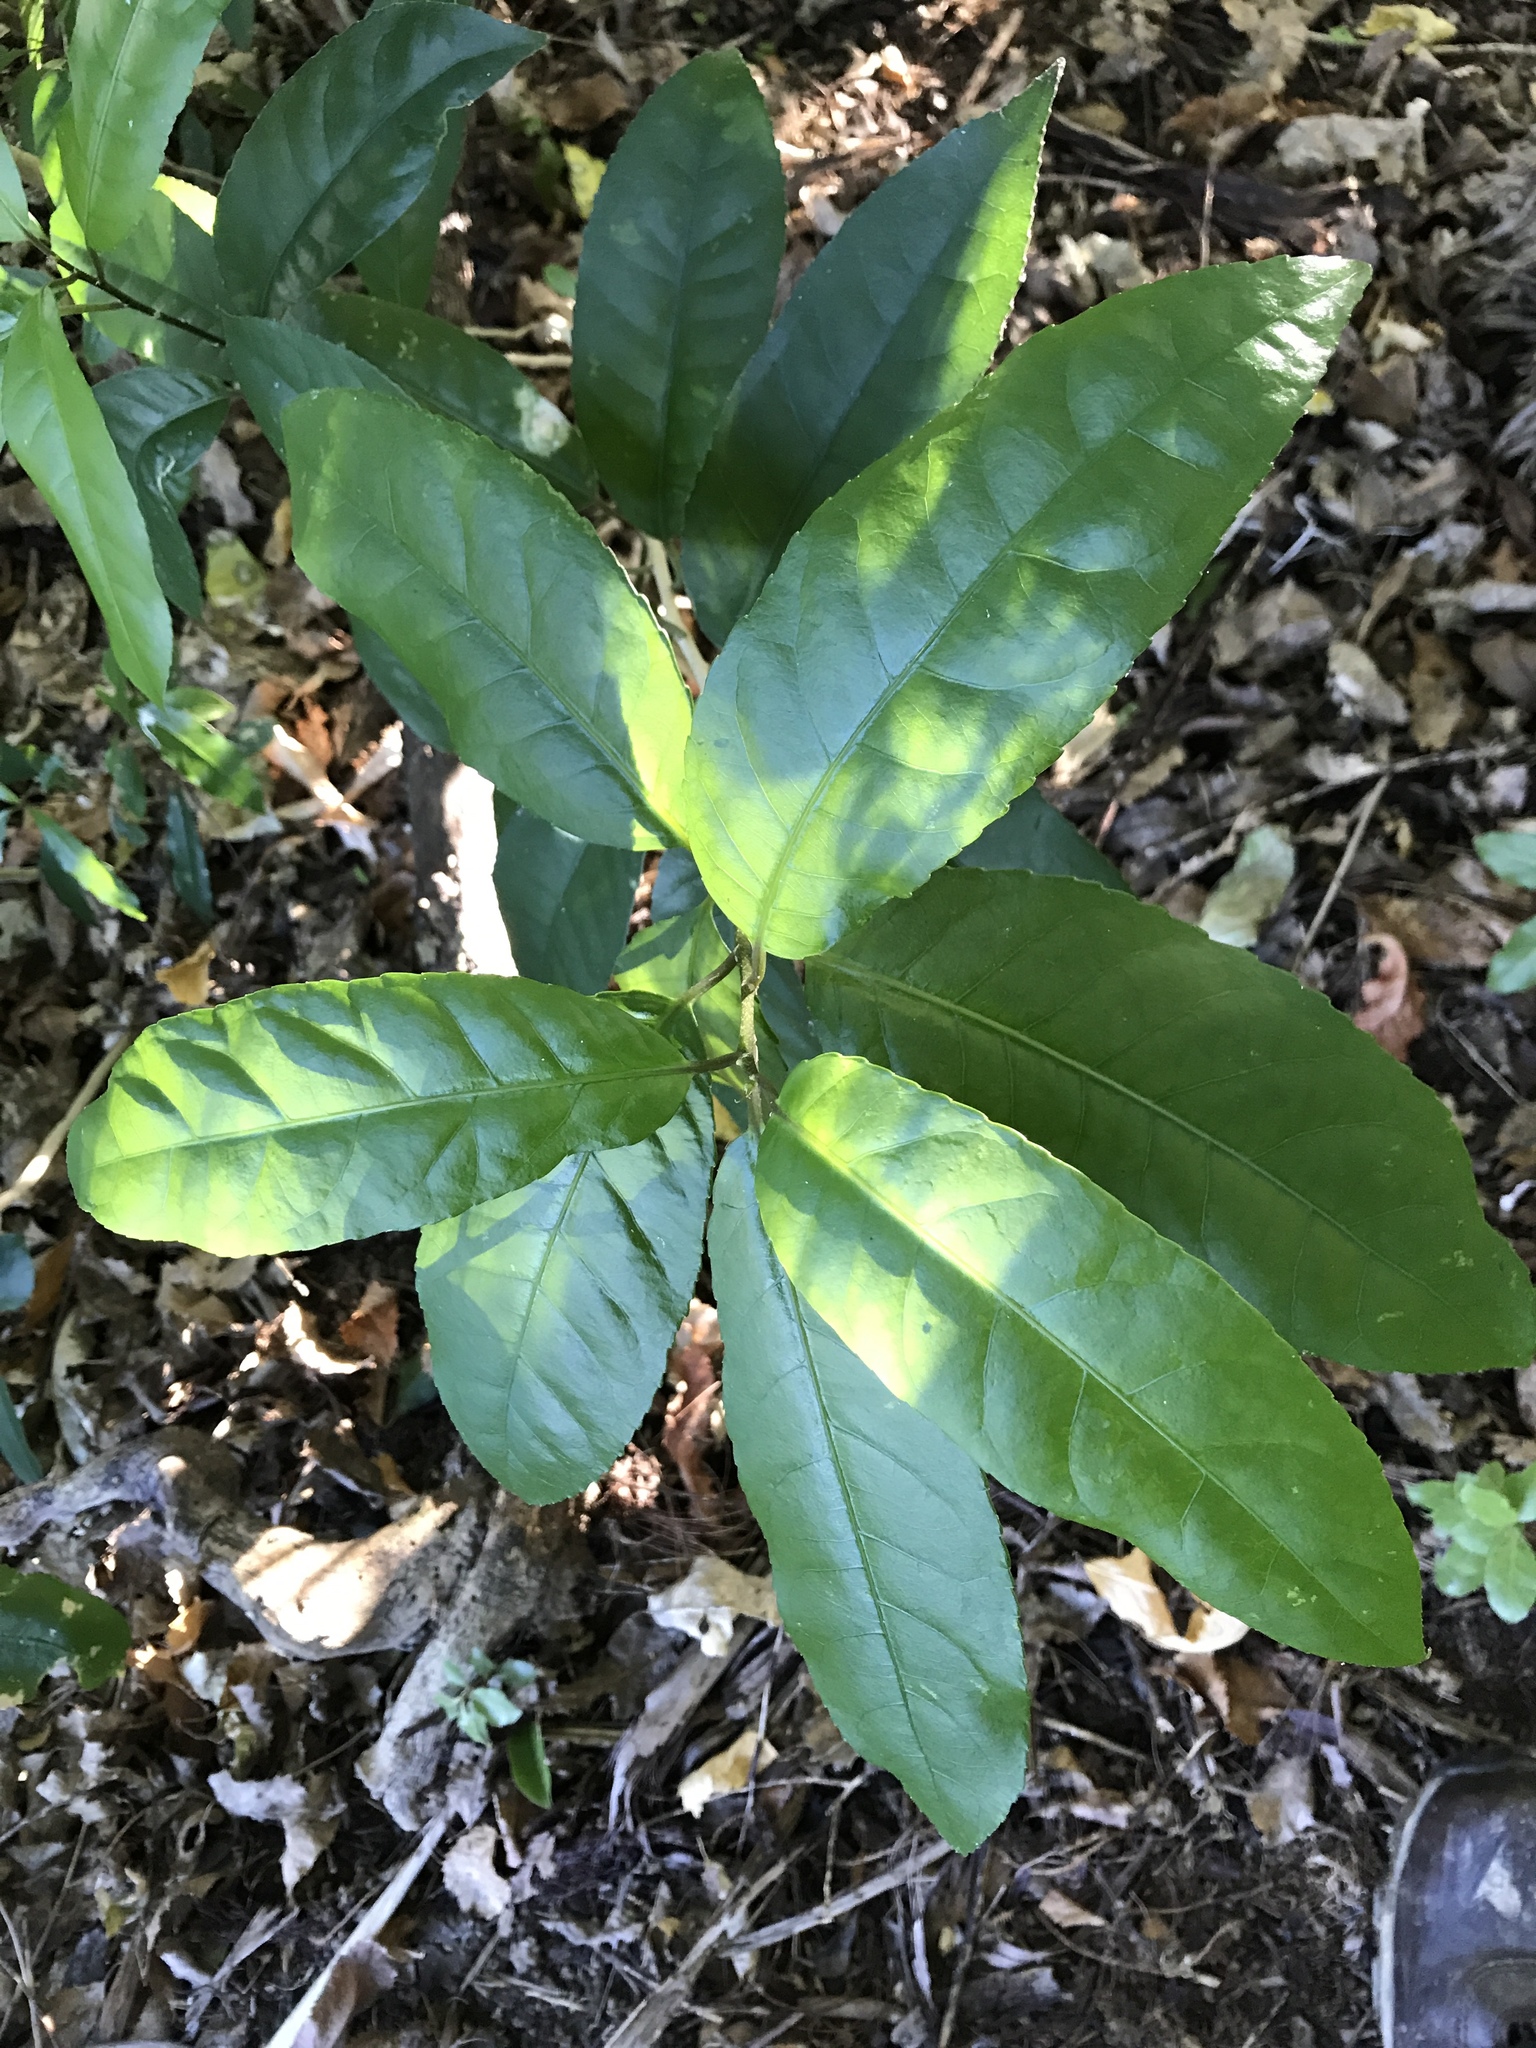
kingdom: Plantae
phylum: Tracheophyta
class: Magnoliopsida
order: Malpighiales
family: Violaceae
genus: Melicytus
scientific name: Melicytus ramiflorus
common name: Mahoe
